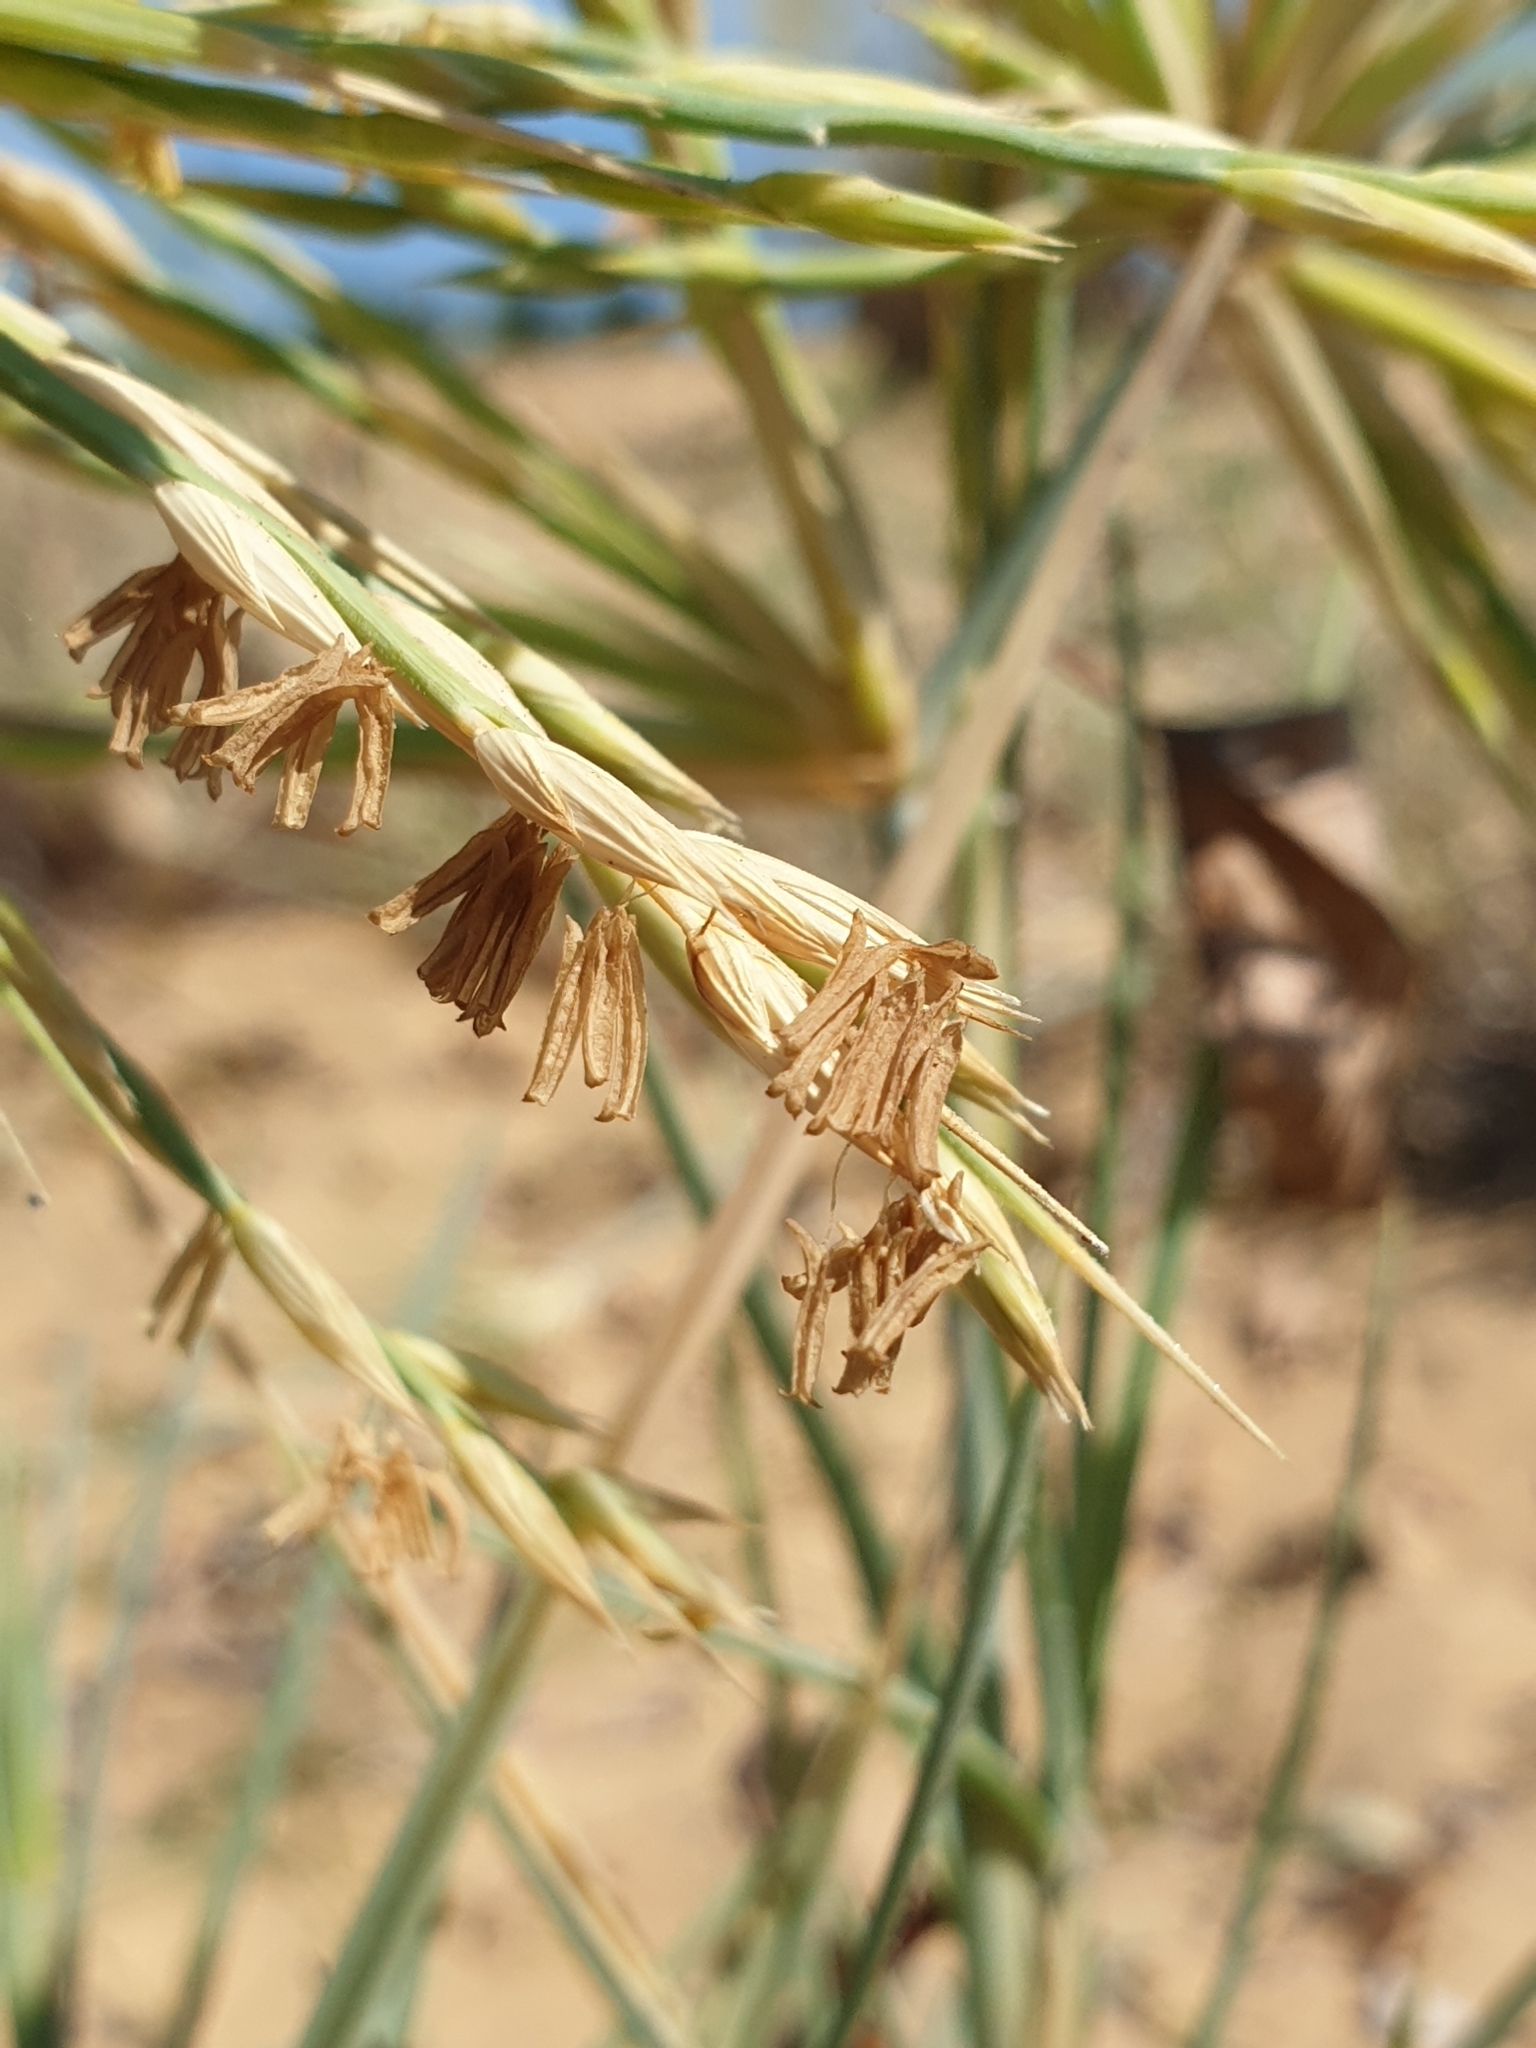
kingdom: Plantae
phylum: Tracheophyta
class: Liliopsida
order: Poales
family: Poaceae
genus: Spinifex
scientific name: Spinifex littoreus
